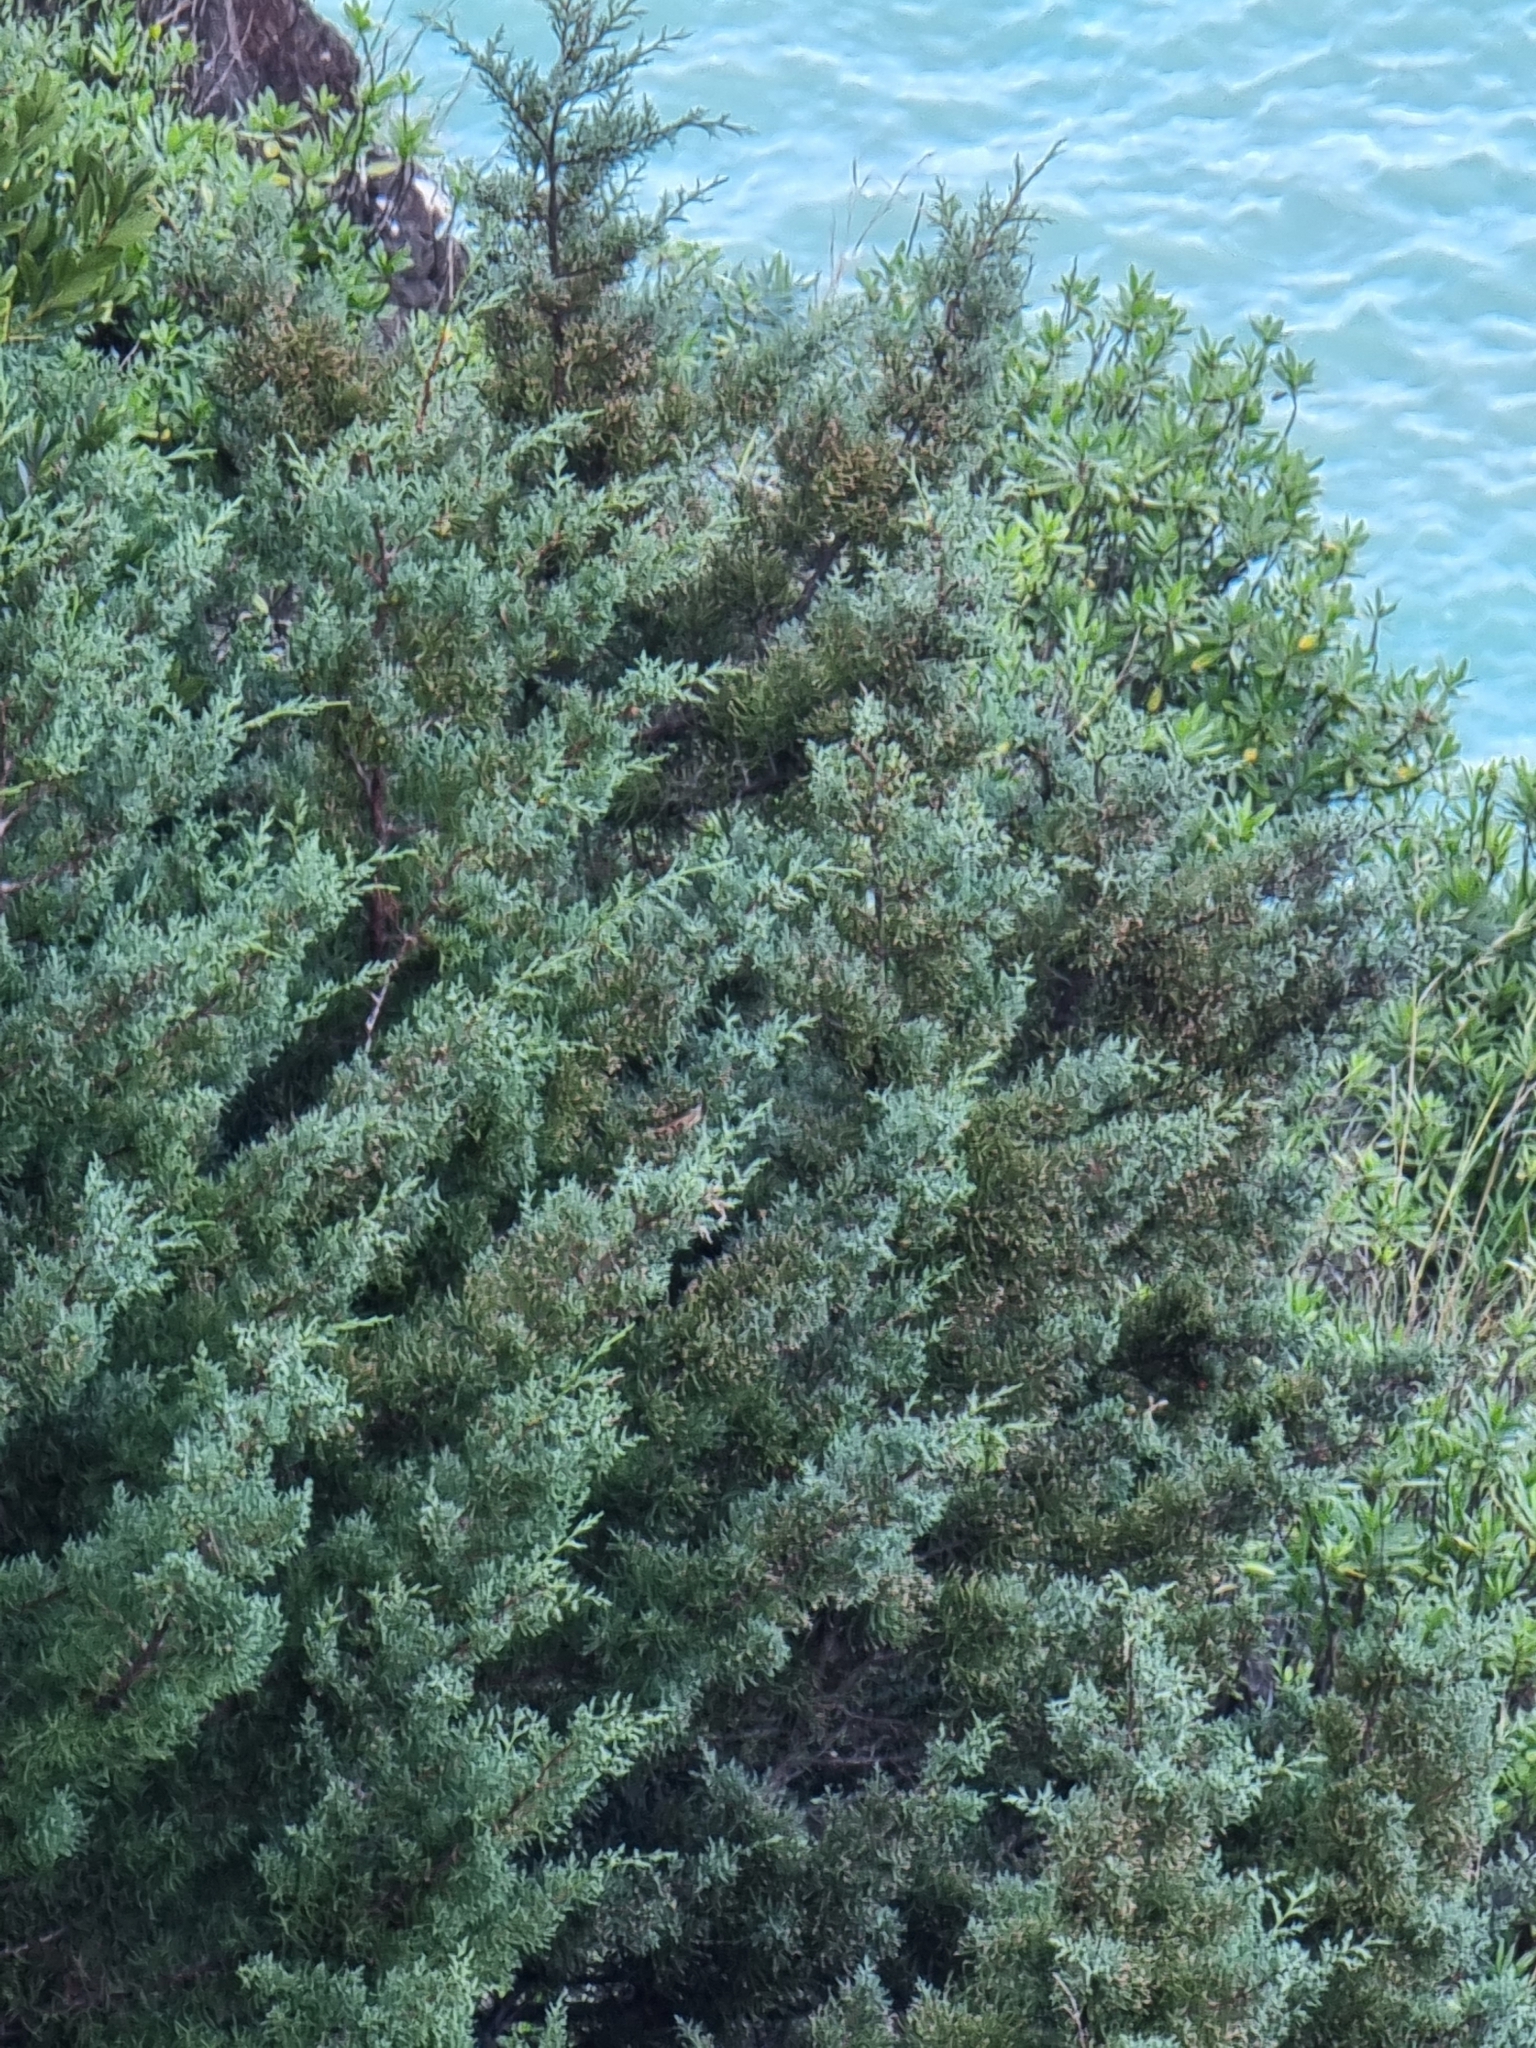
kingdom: Plantae
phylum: Tracheophyta
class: Pinopsida
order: Pinales
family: Cupressaceae
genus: Juniperus
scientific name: Juniperus canariensis
